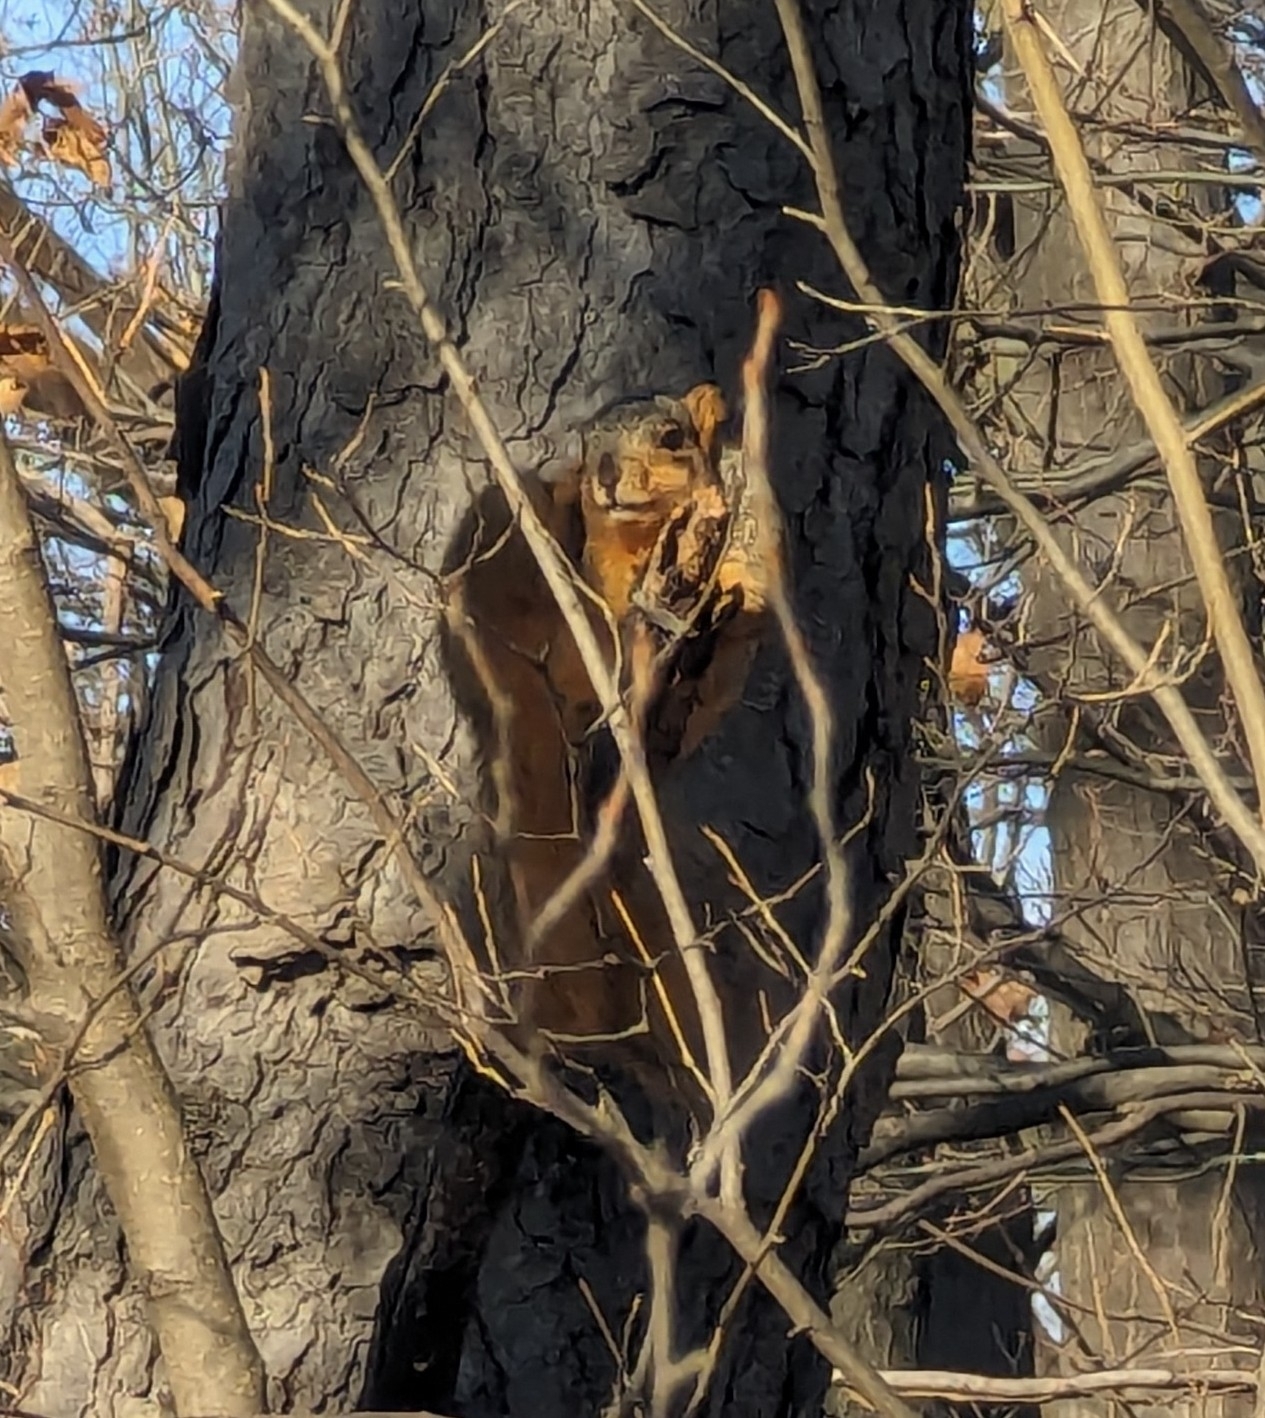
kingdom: Animalia
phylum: Chordata
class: Mammalia
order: Rodentia
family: Sciuridae
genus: Sciurus
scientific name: Sciurus niger
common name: Fox squirrel
